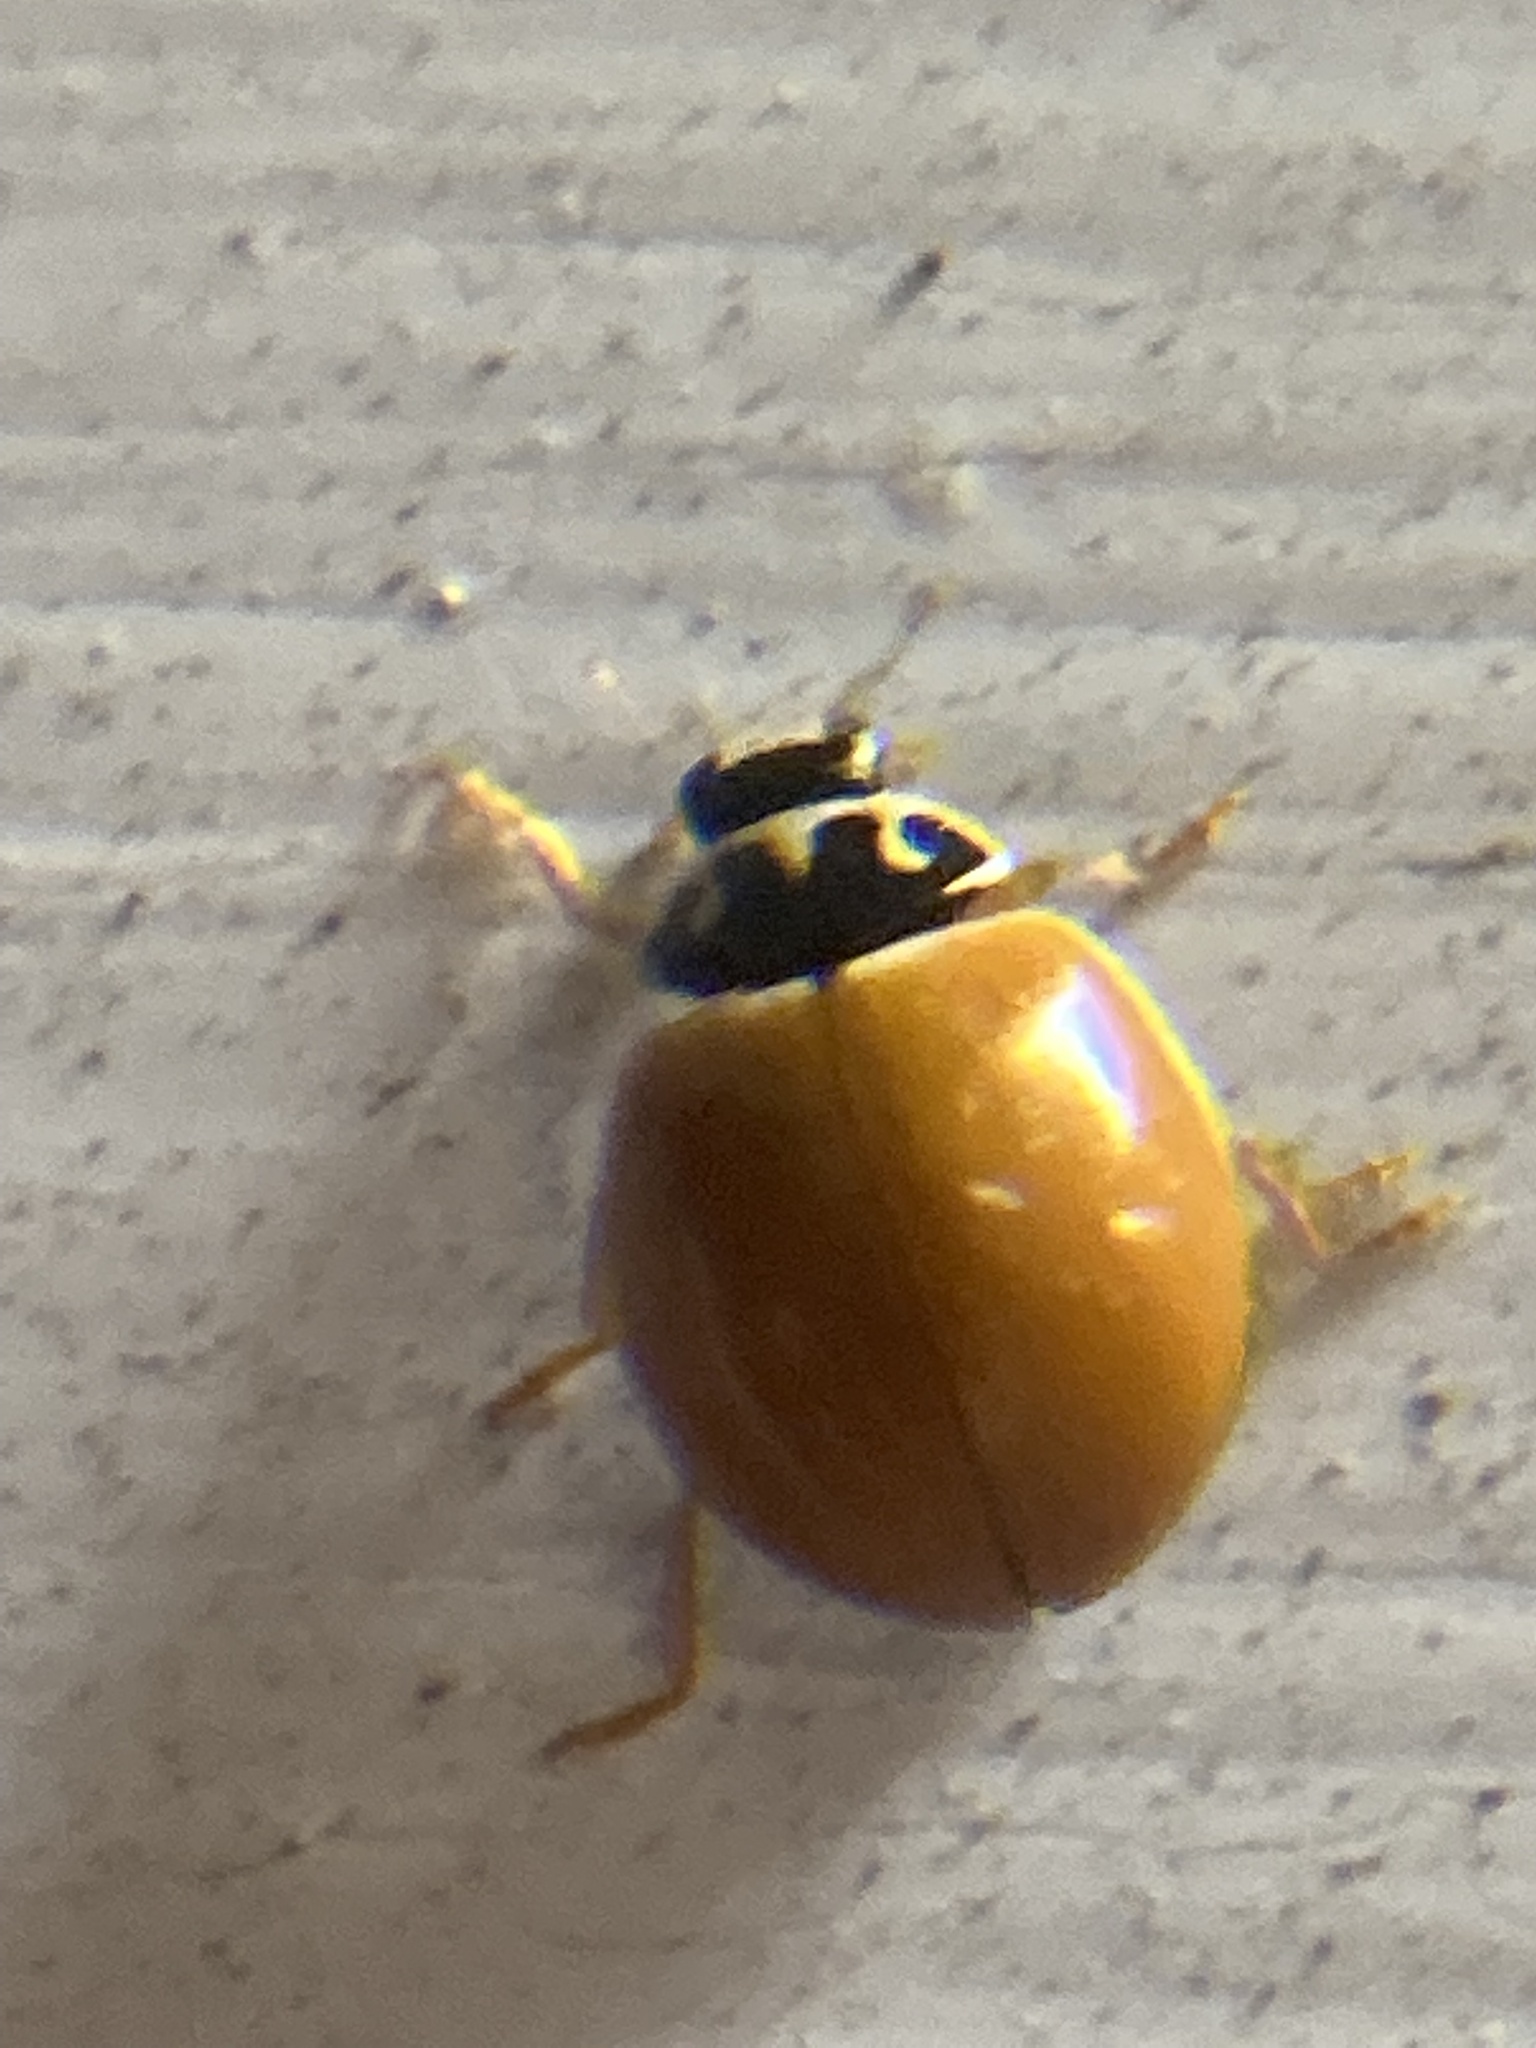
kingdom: Animalia
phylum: Arthropoda
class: Insecta
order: Coleoptera
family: Coccinellidae
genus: Cycloneda
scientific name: Cycloneda munda
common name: Polished lady beetle
